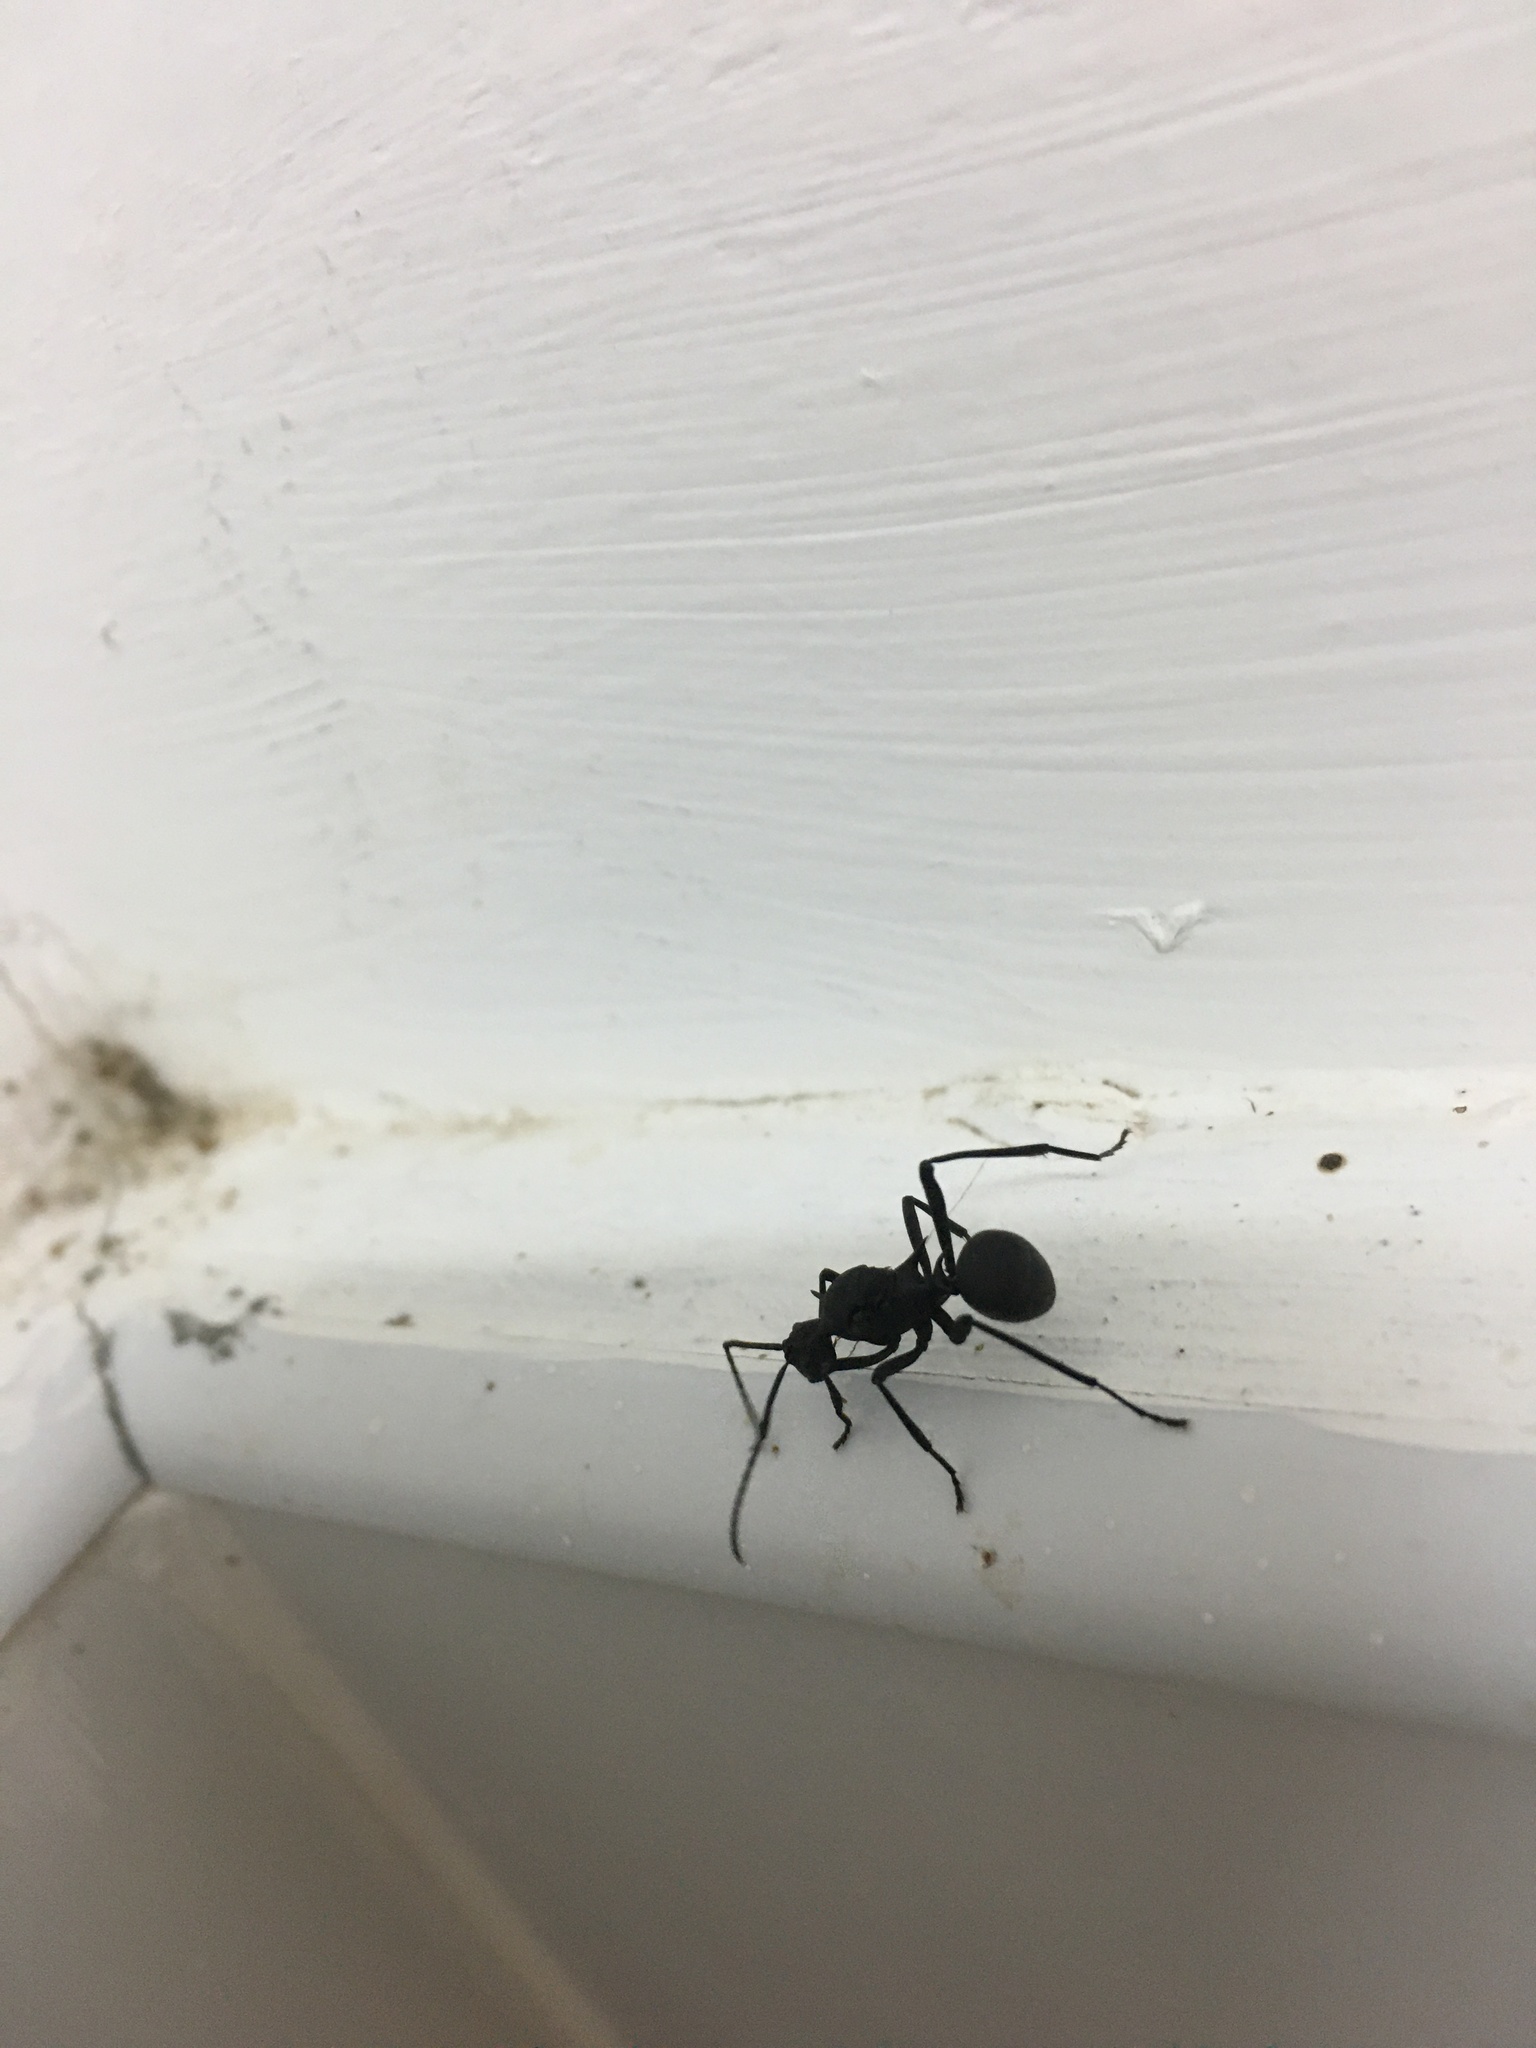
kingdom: Animalia
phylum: Arthropoda
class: Insecta
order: Hymenoptera
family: Formicidae
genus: Polyrhachis
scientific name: Polyrhachis armata
